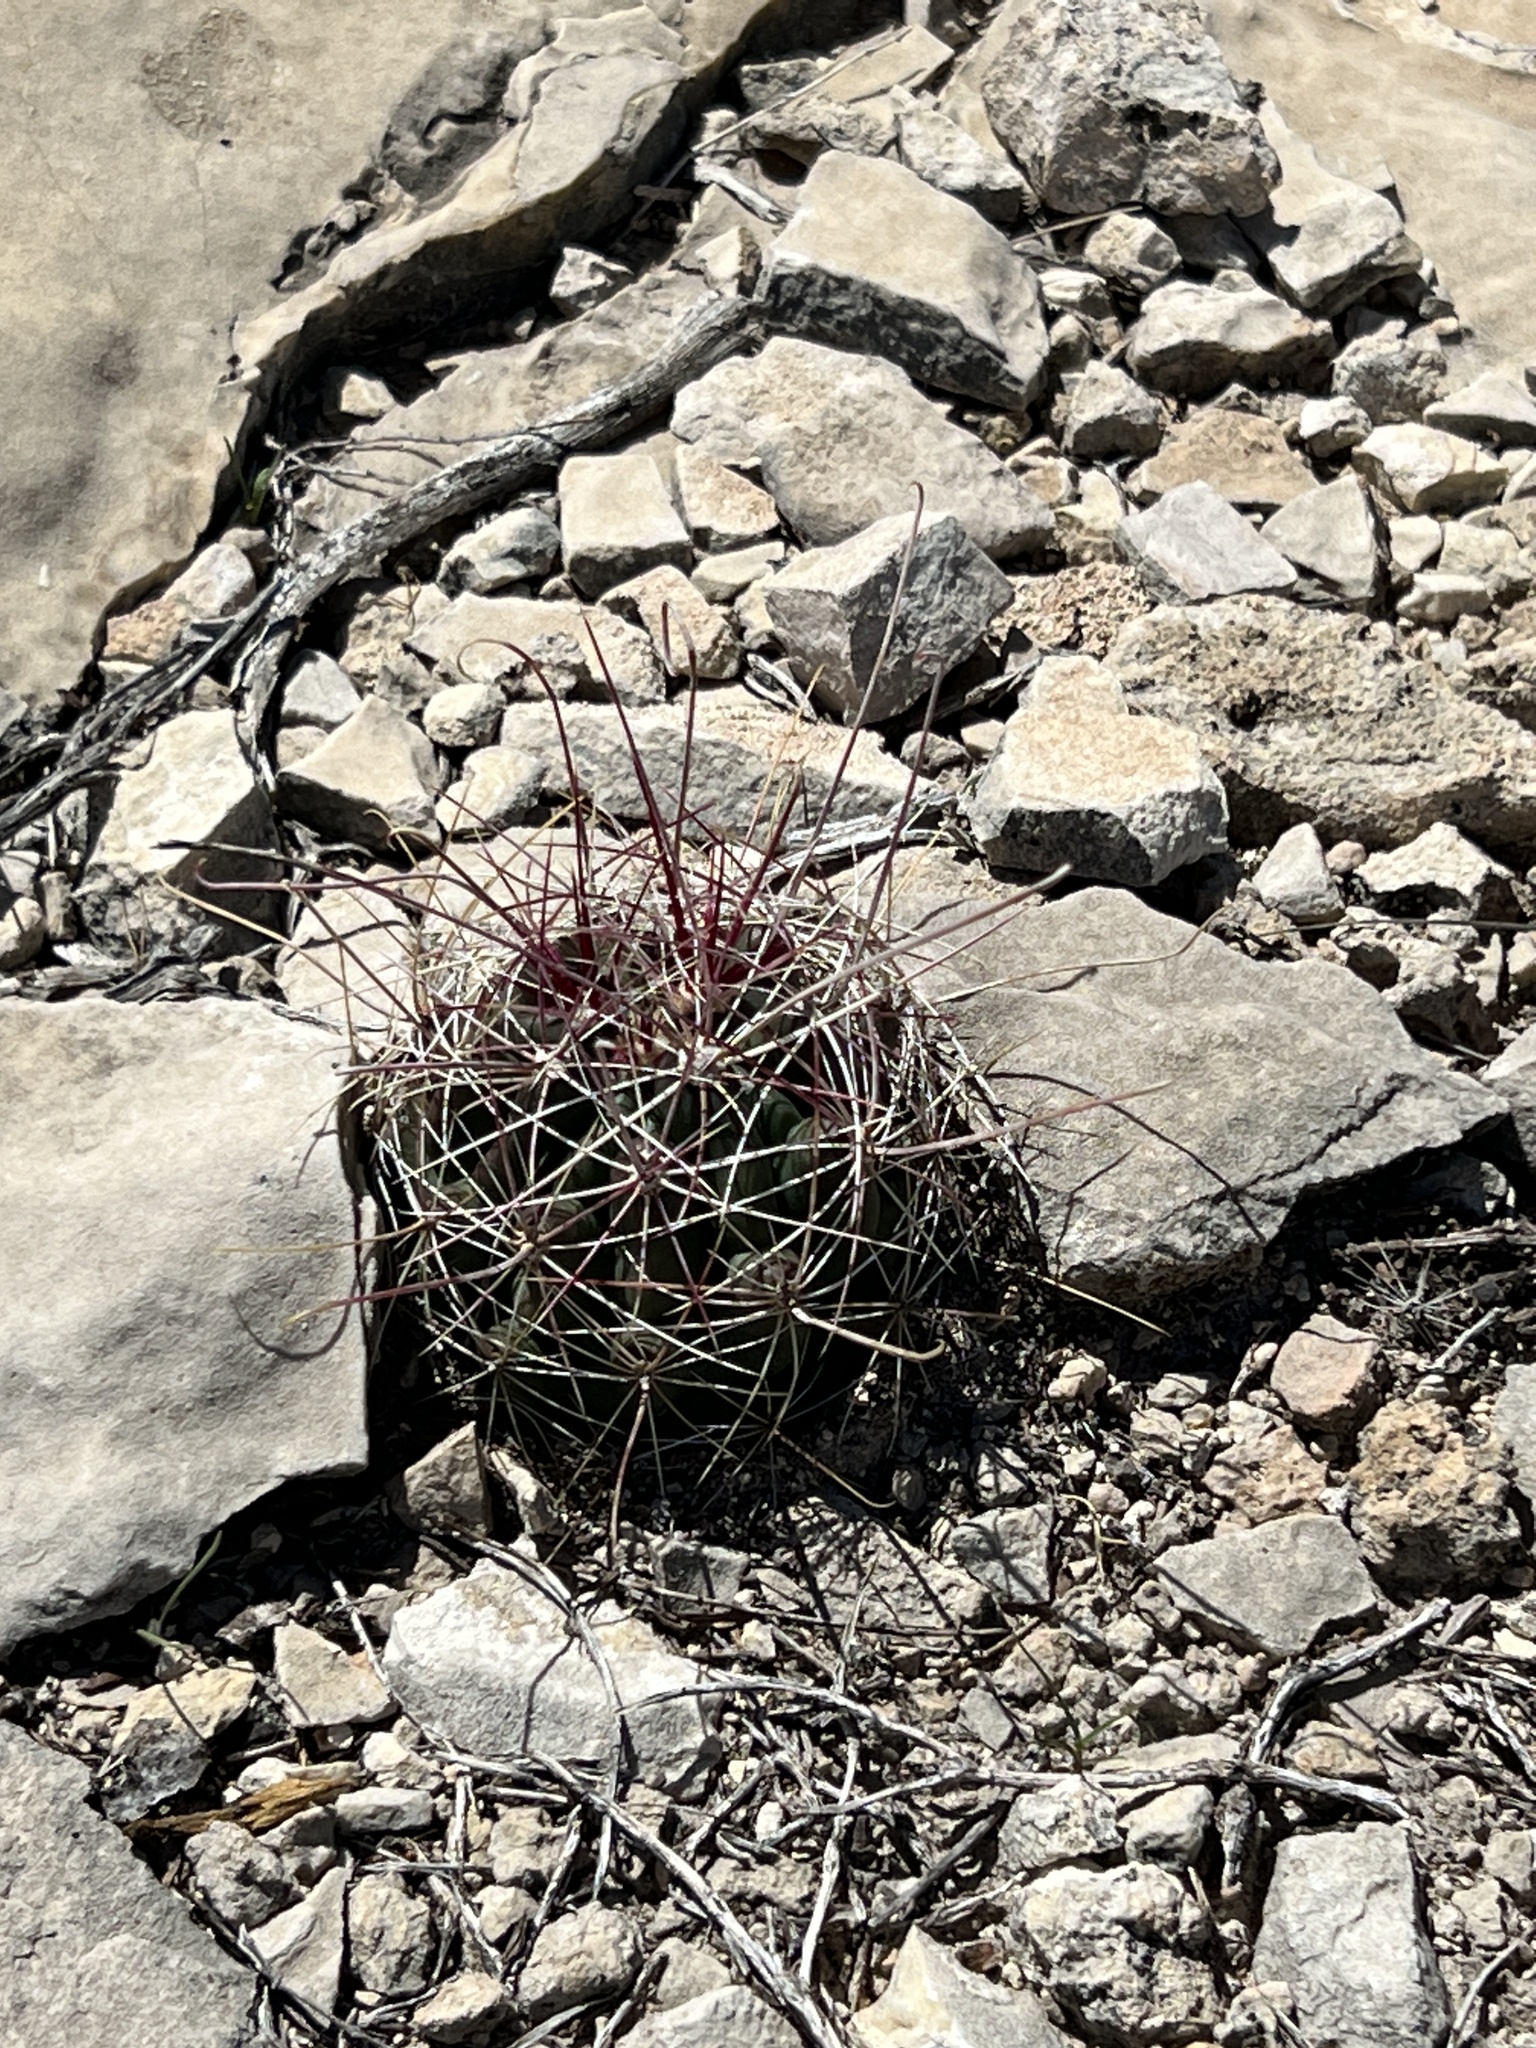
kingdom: Plantae
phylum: Tracheophyta
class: Magnoliopsida
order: Caryophyllales
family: Cactaceae
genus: Bisnaga
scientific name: Bisnaga hamatacantha
